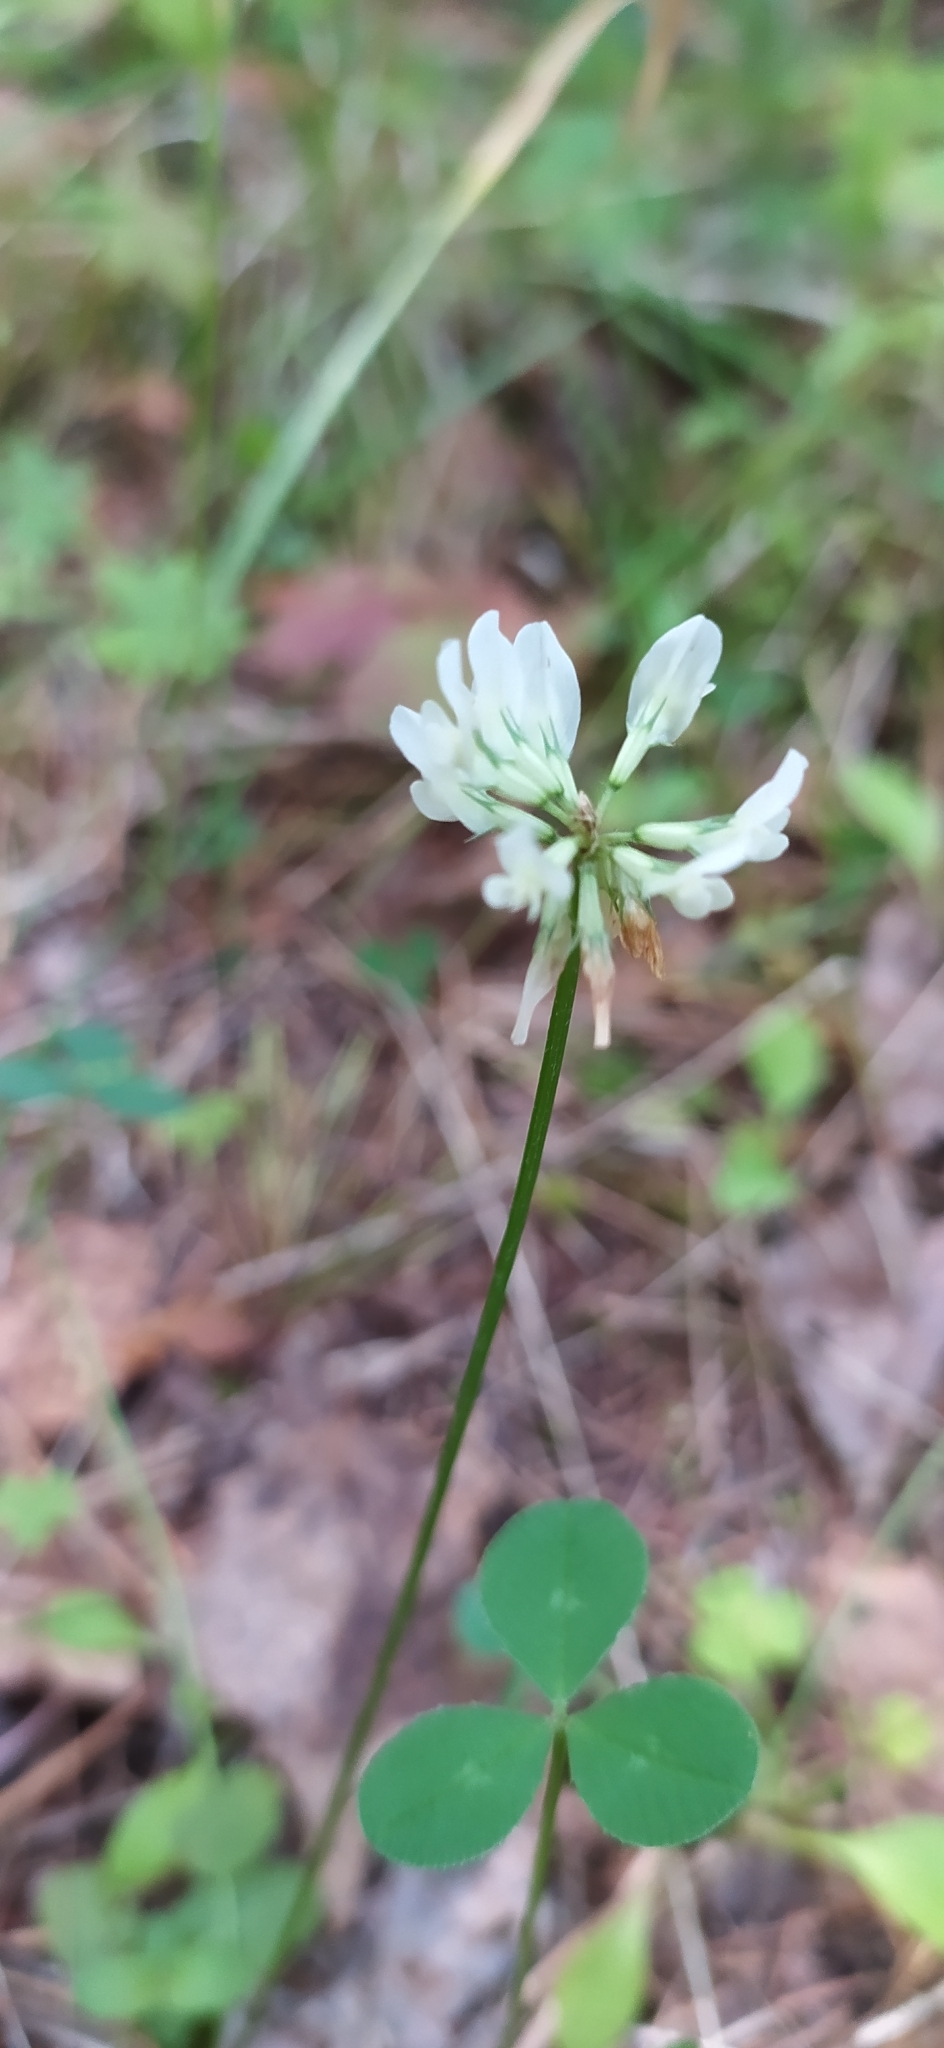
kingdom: Plantae
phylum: Tracheophyta
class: Magnoliopsida
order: Fabales
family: Fabaceae
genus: Trifolium
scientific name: Trifolium repens
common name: White clover
